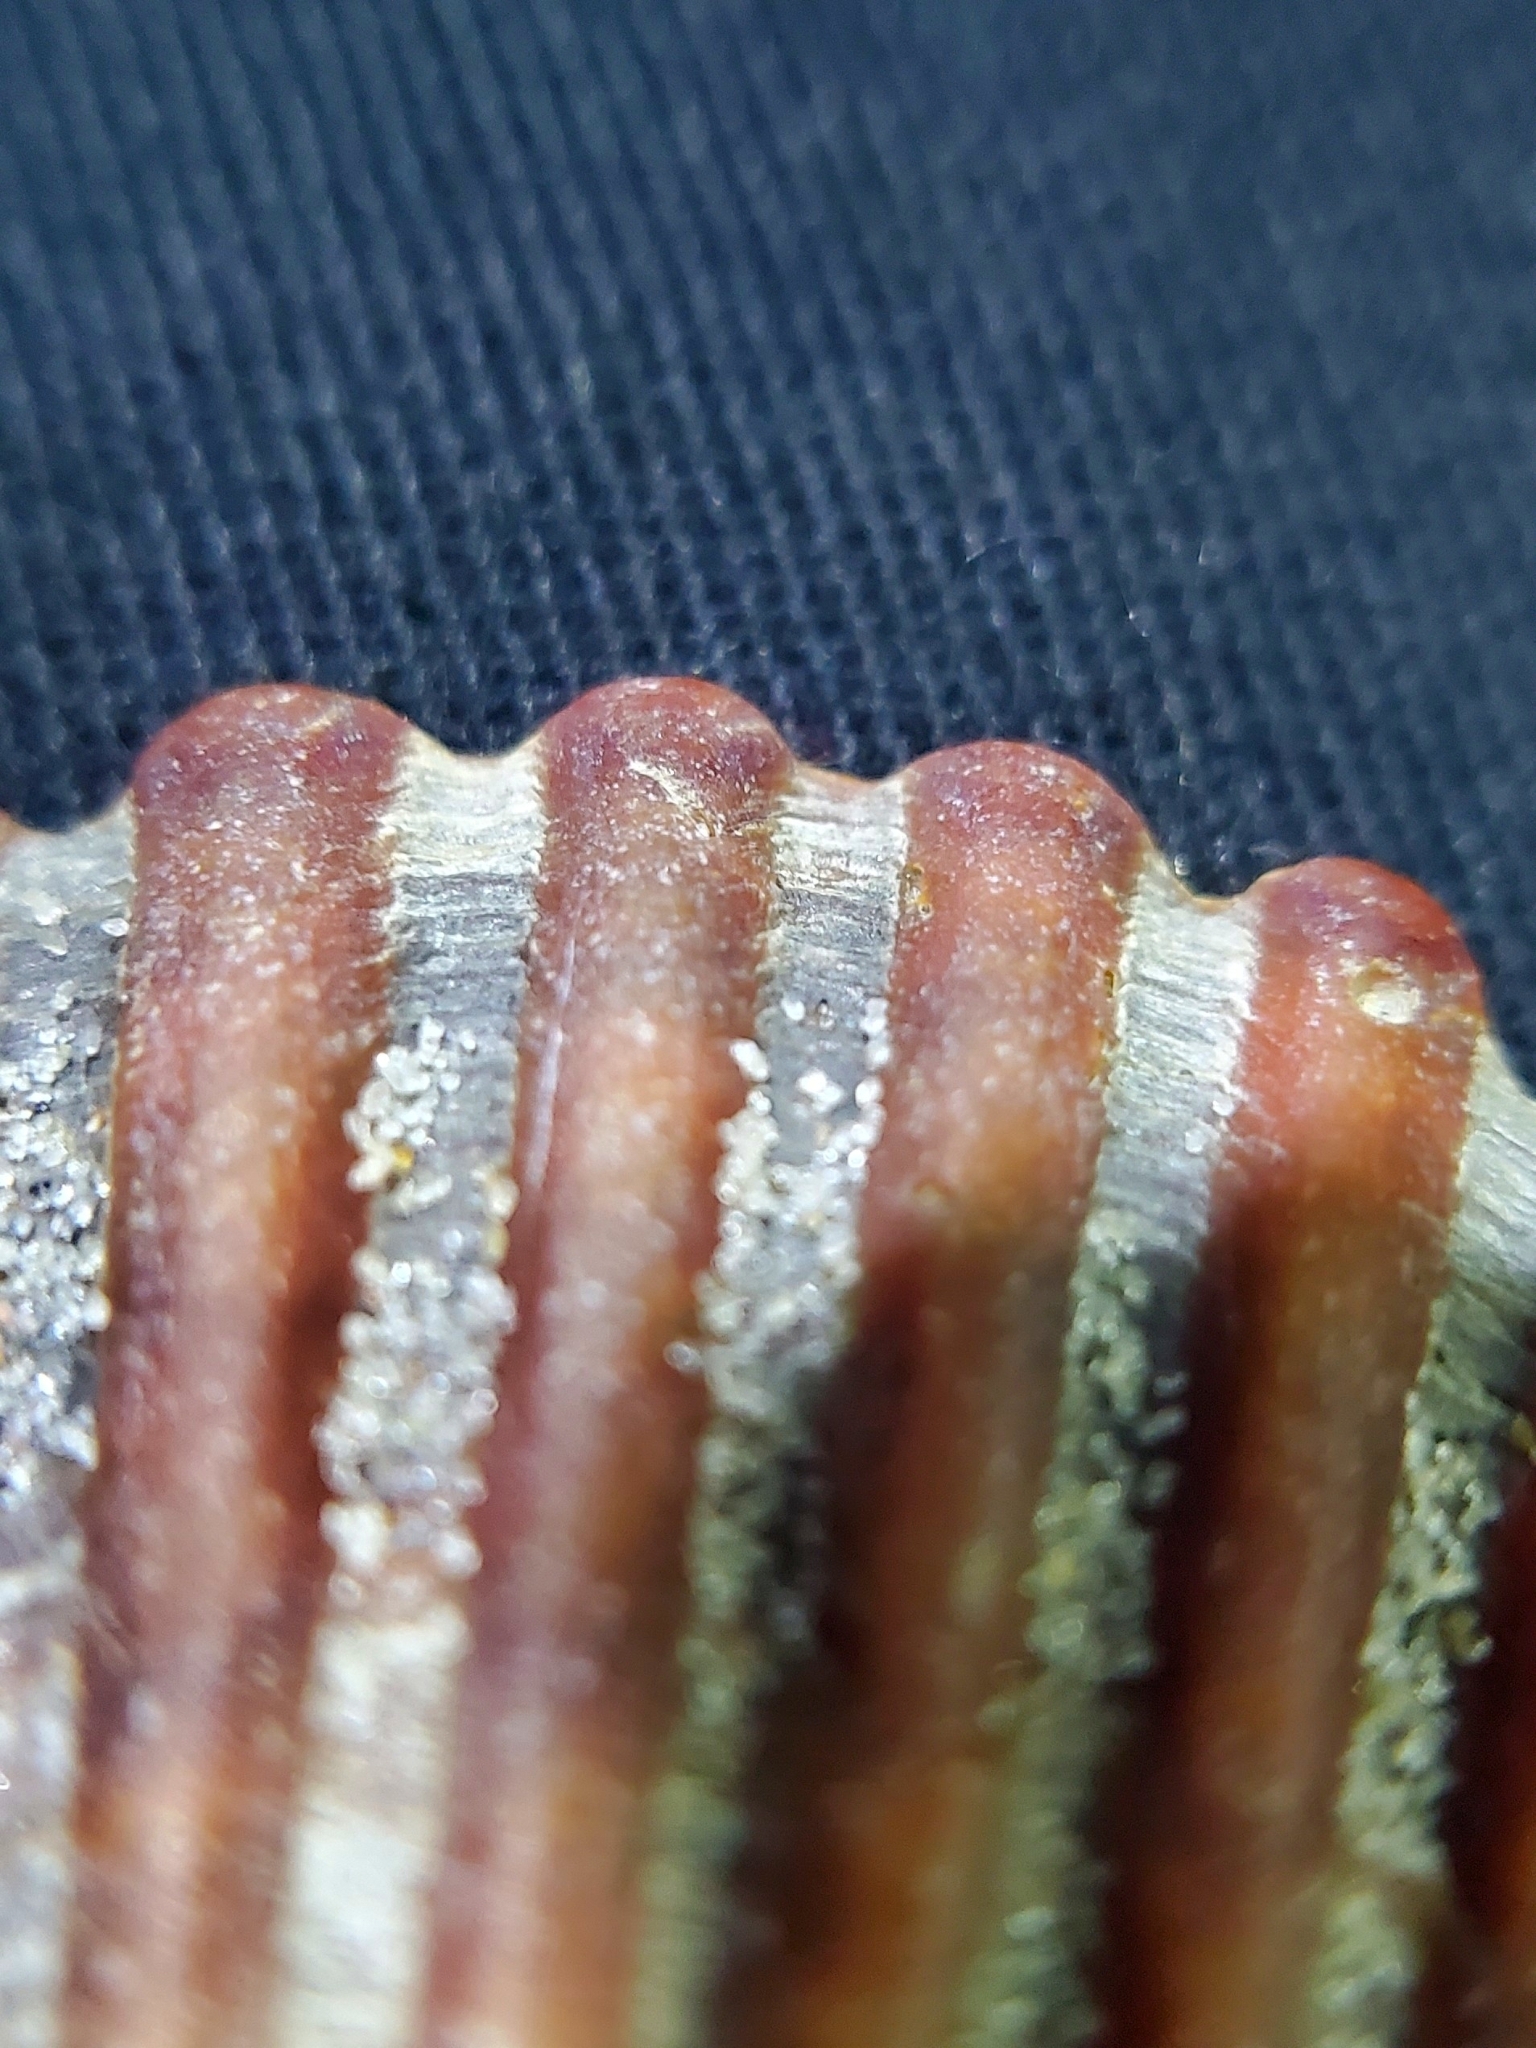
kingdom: Animalia
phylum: Mollusca
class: Bivalvia
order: Pectinida
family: Pectinidae
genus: Argopecten
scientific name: Argopecten irradians
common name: Atlantic bay scallop
